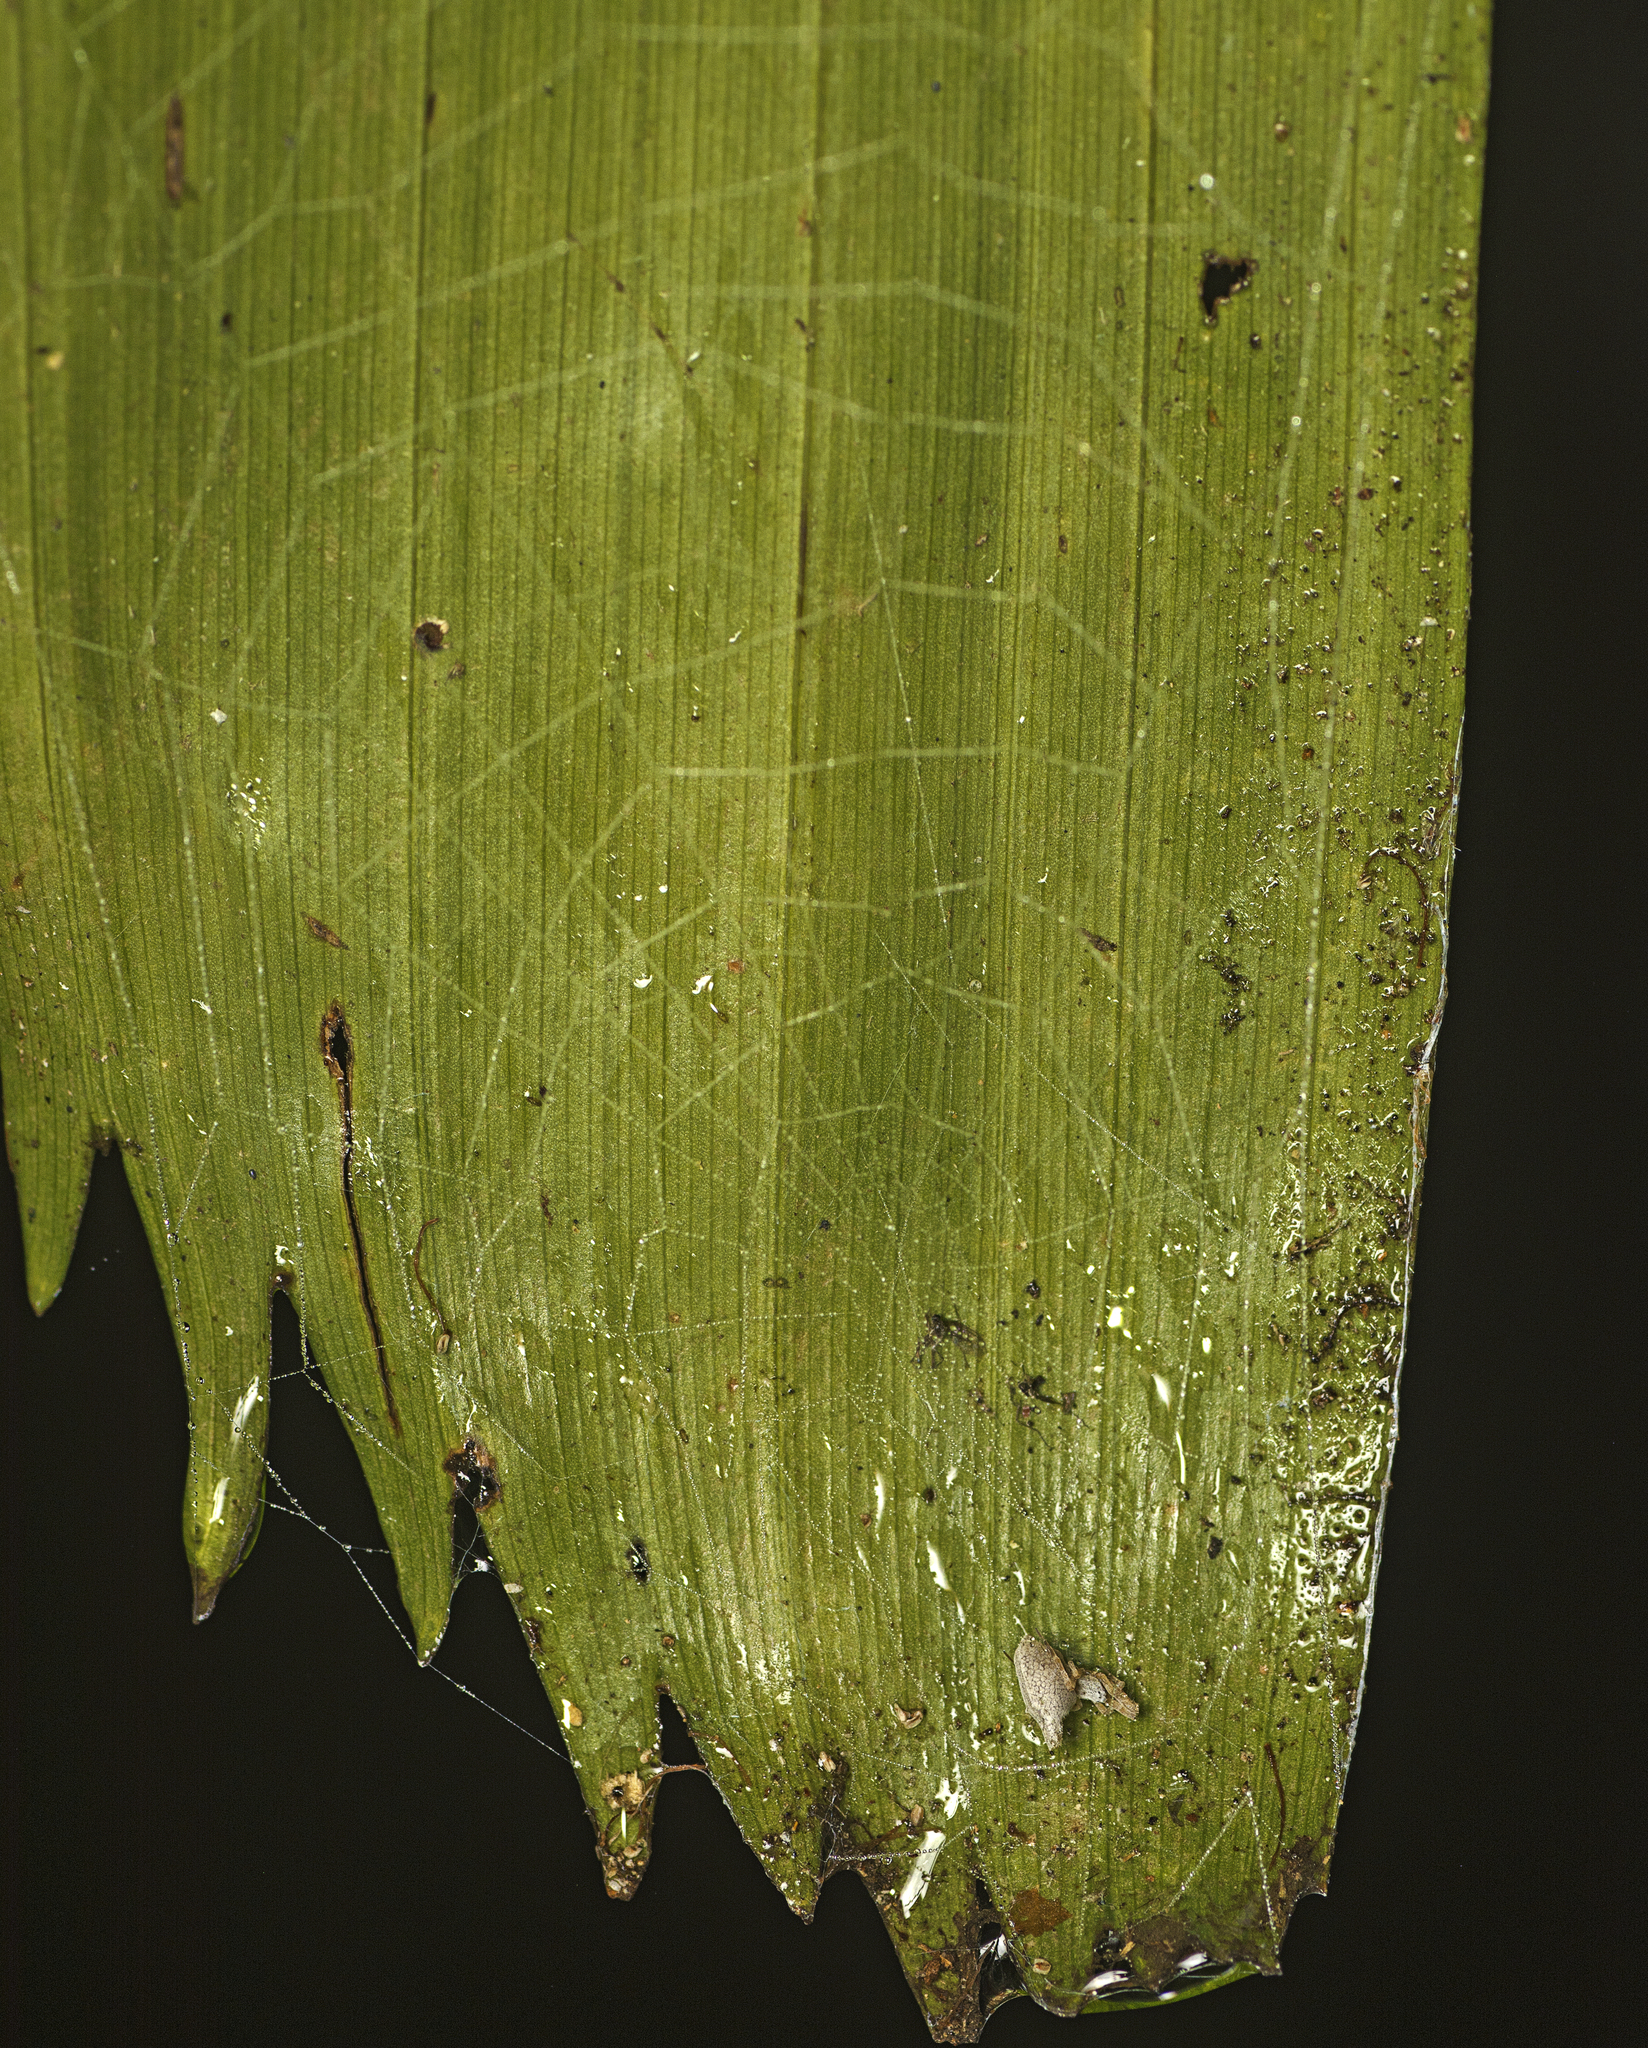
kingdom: Animalia
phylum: Arthropoda
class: Arachnida
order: Araneae
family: Uloboridae
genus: Philoponella
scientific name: Philoponella congregabilis
